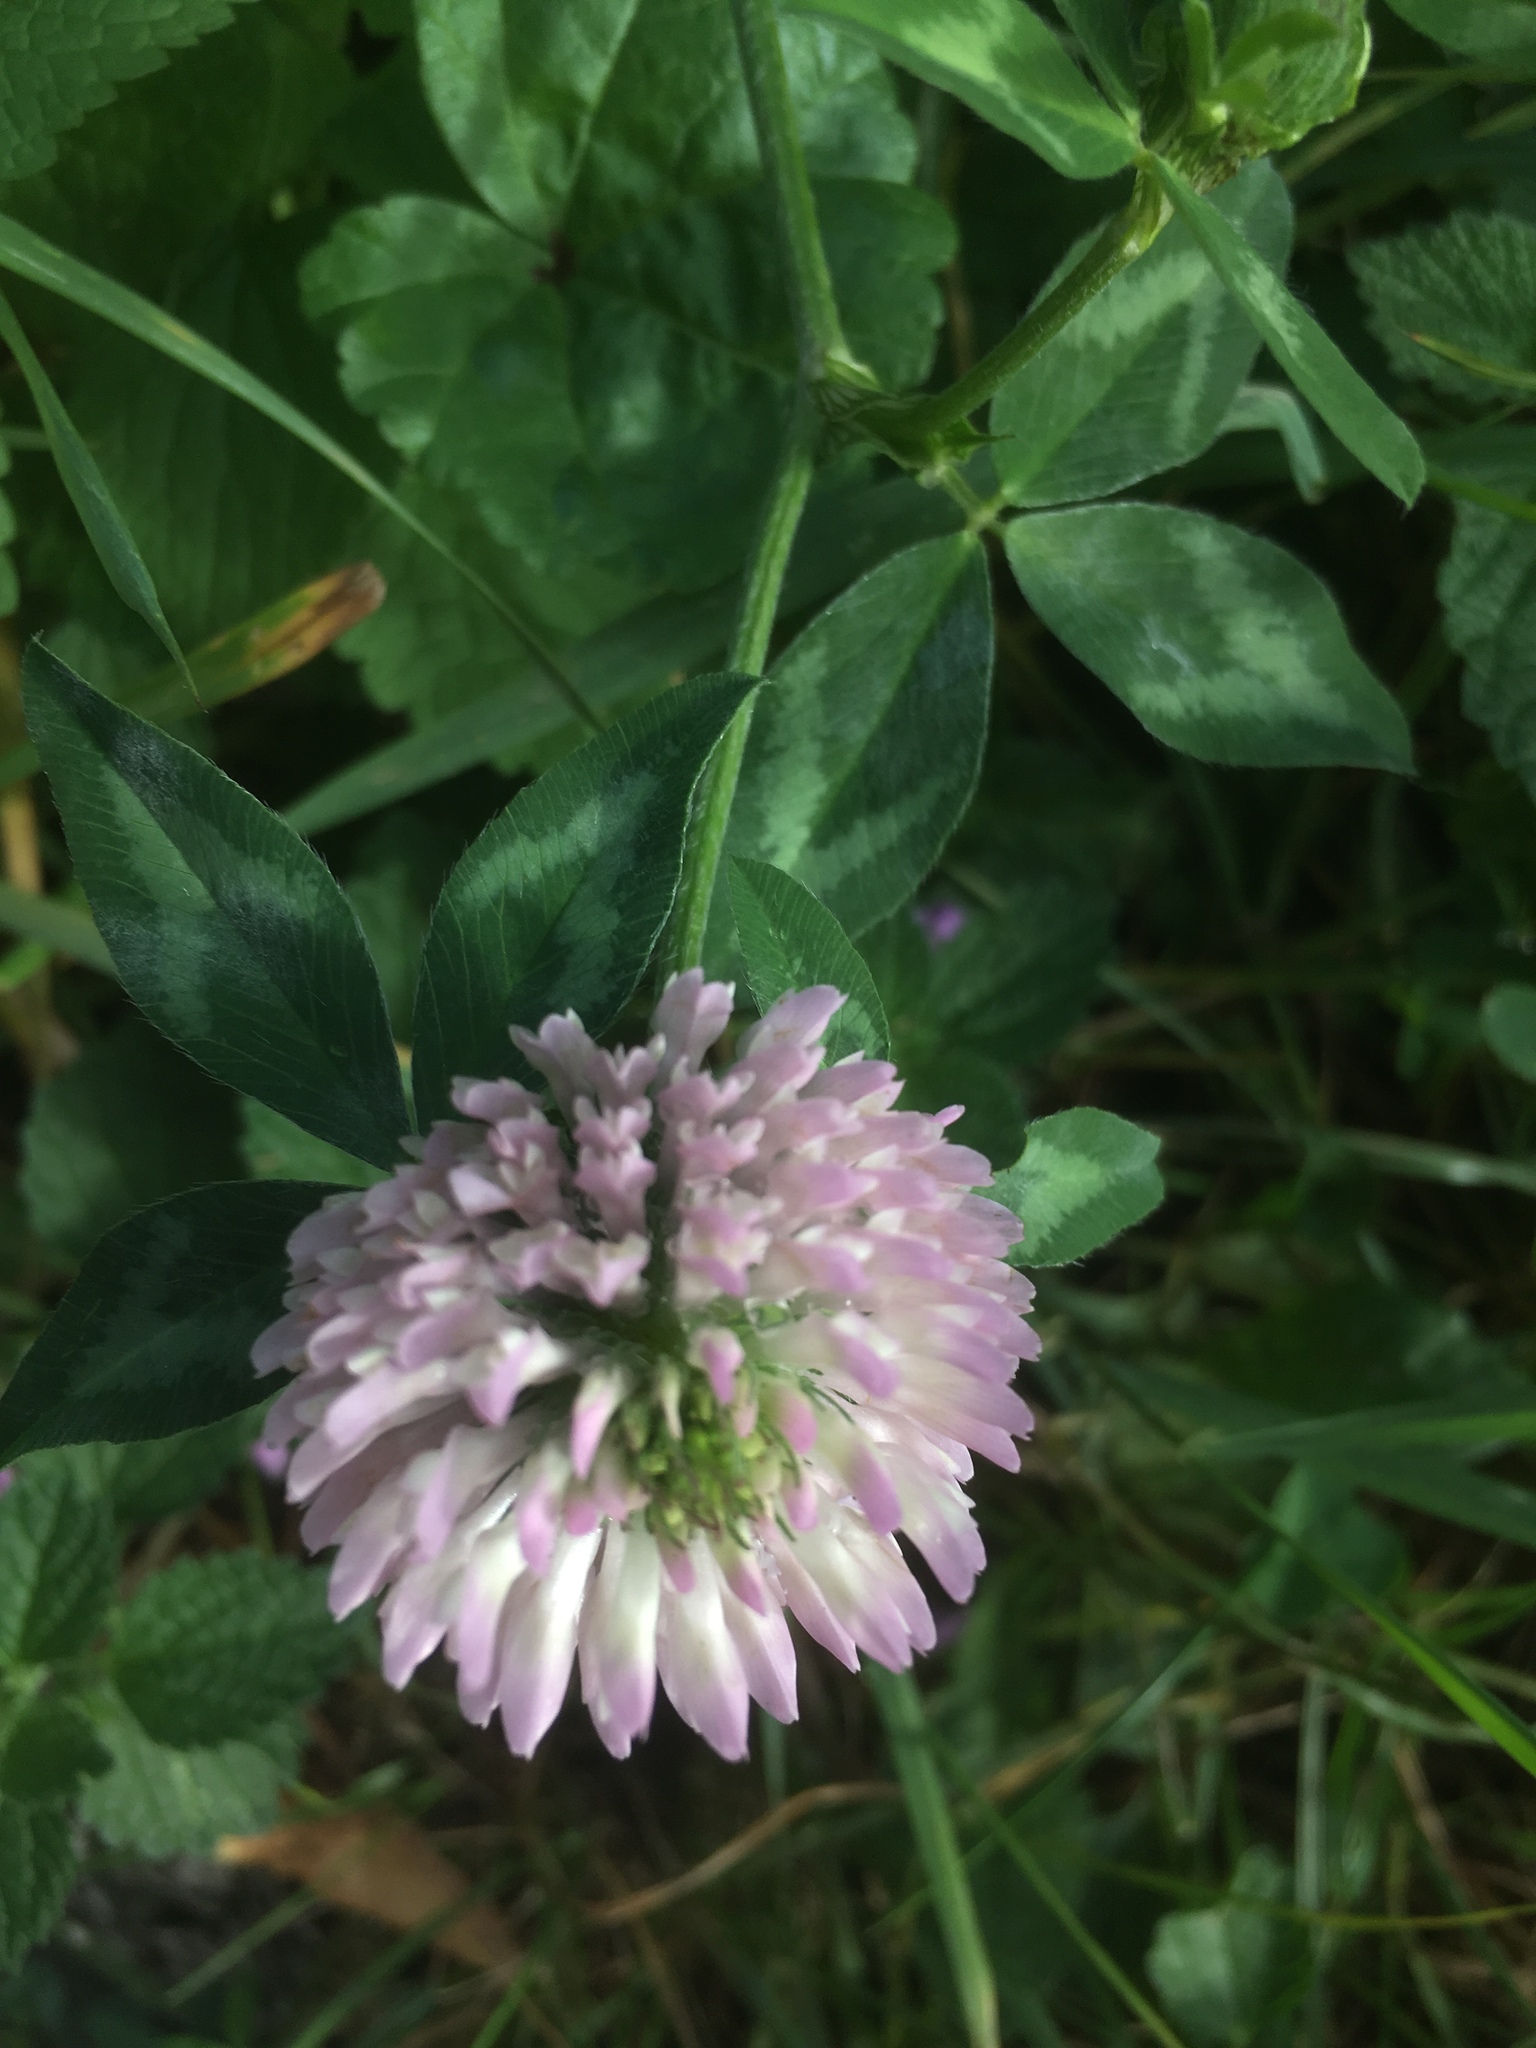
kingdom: Plantae
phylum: Tracheophyta
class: Magnoliopsida
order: Fabales
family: Fabaceae
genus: Trifolium
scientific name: Trifolium pratense
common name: Red clover
